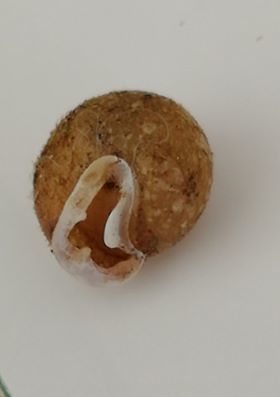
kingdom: Animalia
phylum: Mollusca
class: Gastropoda
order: Stylommatophora
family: Helicidae
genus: Isognomostoma
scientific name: Isognomostoma isognomostomos
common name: Mask snail
